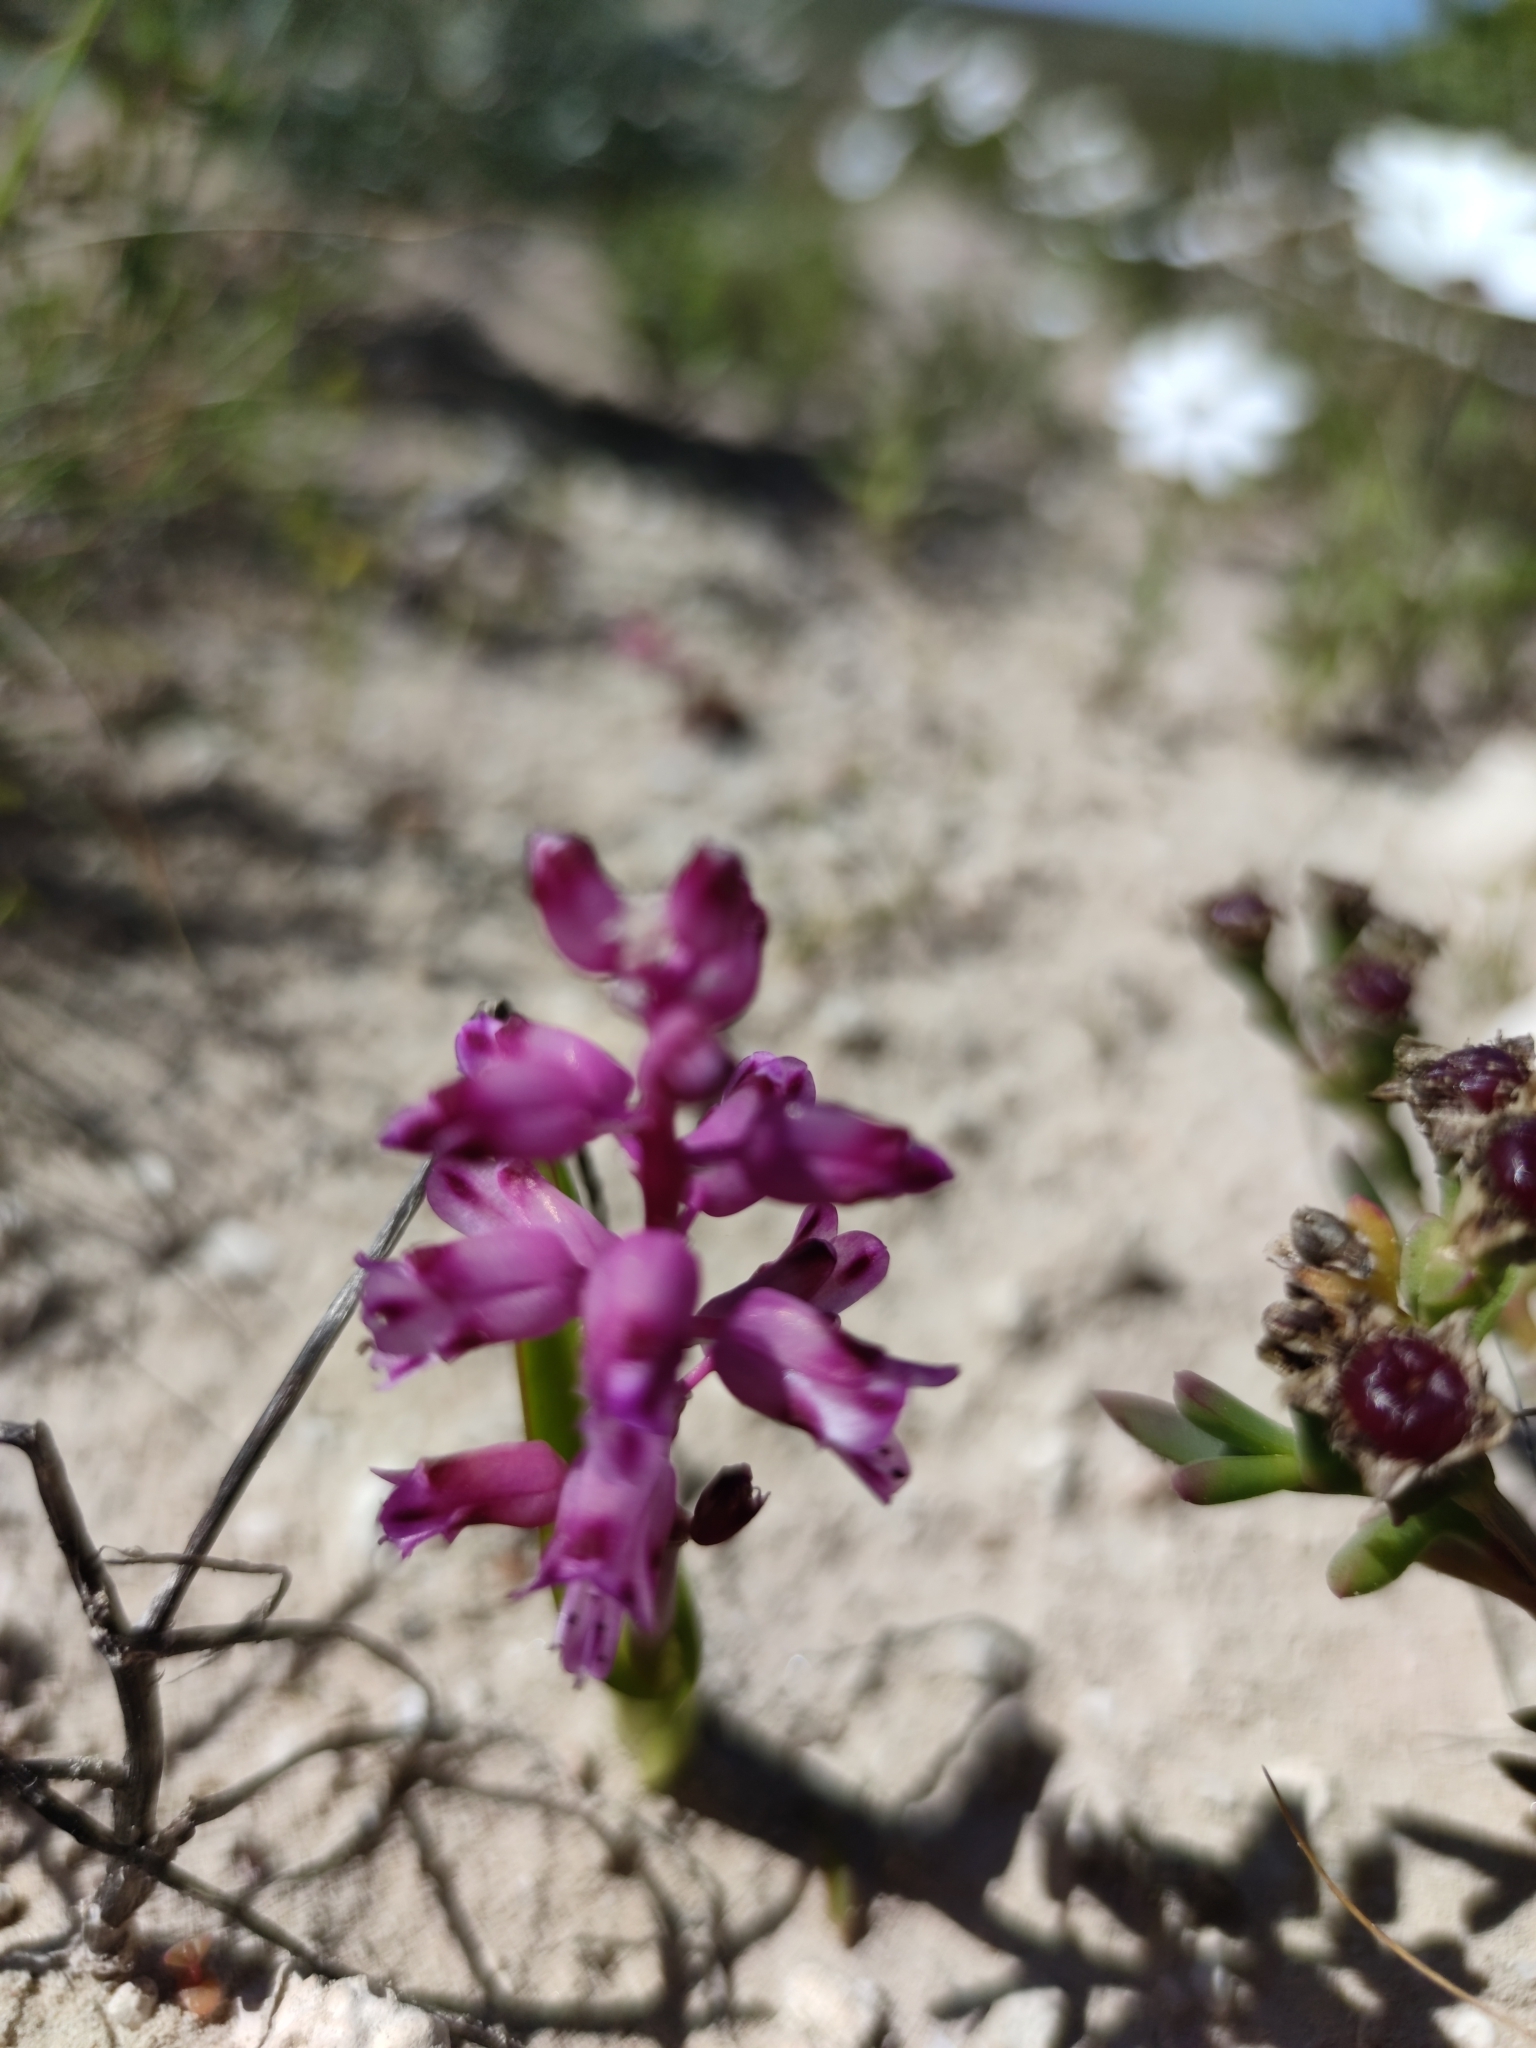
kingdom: Plantae
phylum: Tracheophyta
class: Liliopsida
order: Asparagales
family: Asparagaceae
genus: Lachenalia
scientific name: Lachenalia pallida
